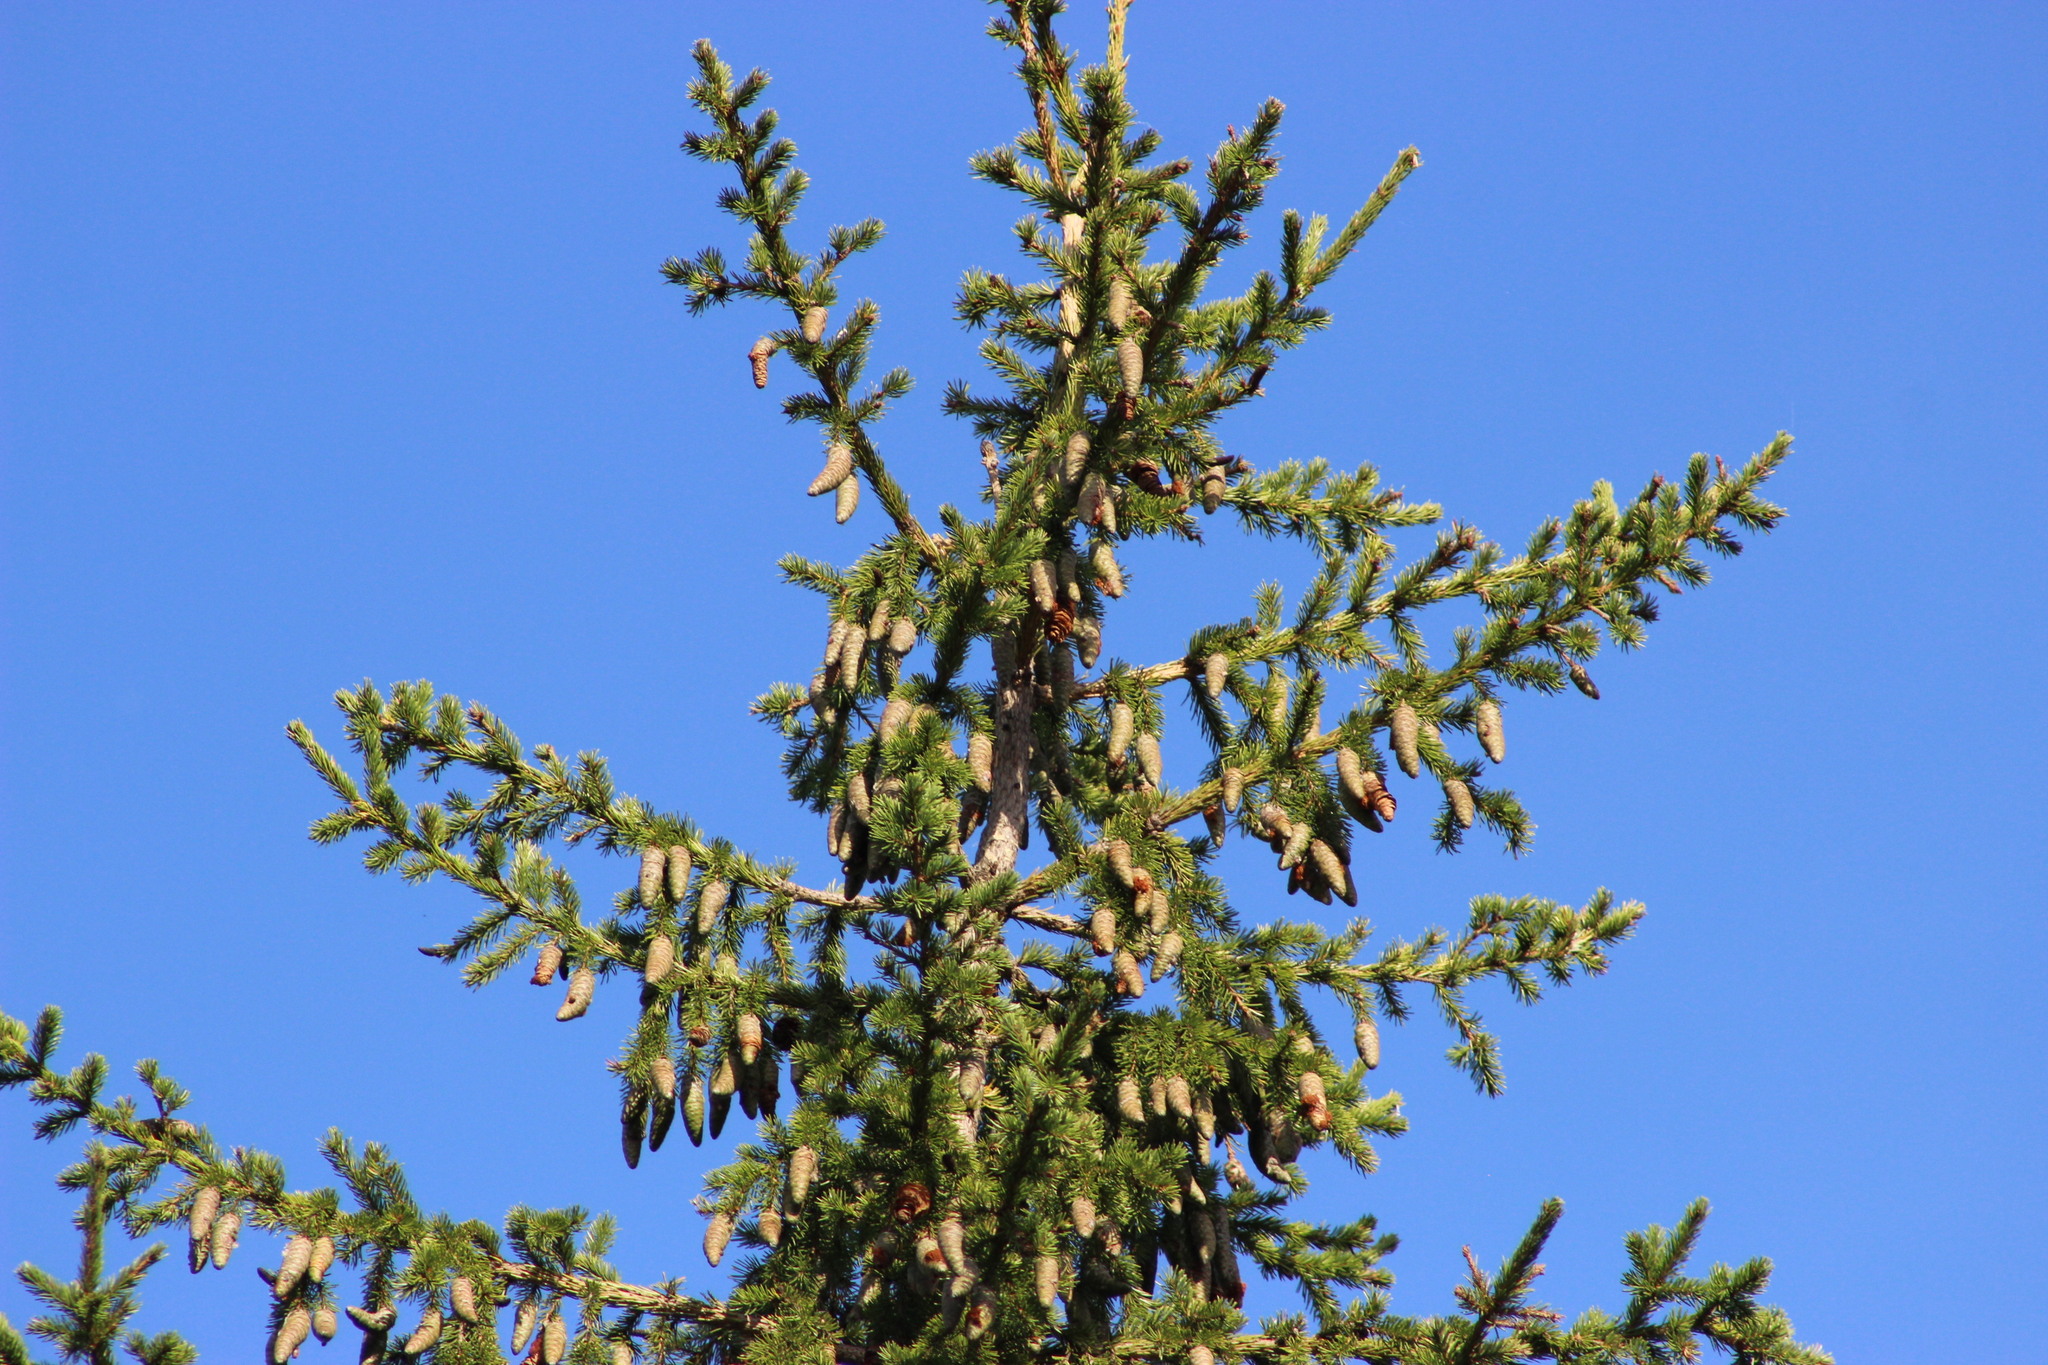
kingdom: Plantae
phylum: Tracheophyta
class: Pinopsida
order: Pinales
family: Pinaceae
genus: Picea
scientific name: Picea obovata
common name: Siberian spruce
